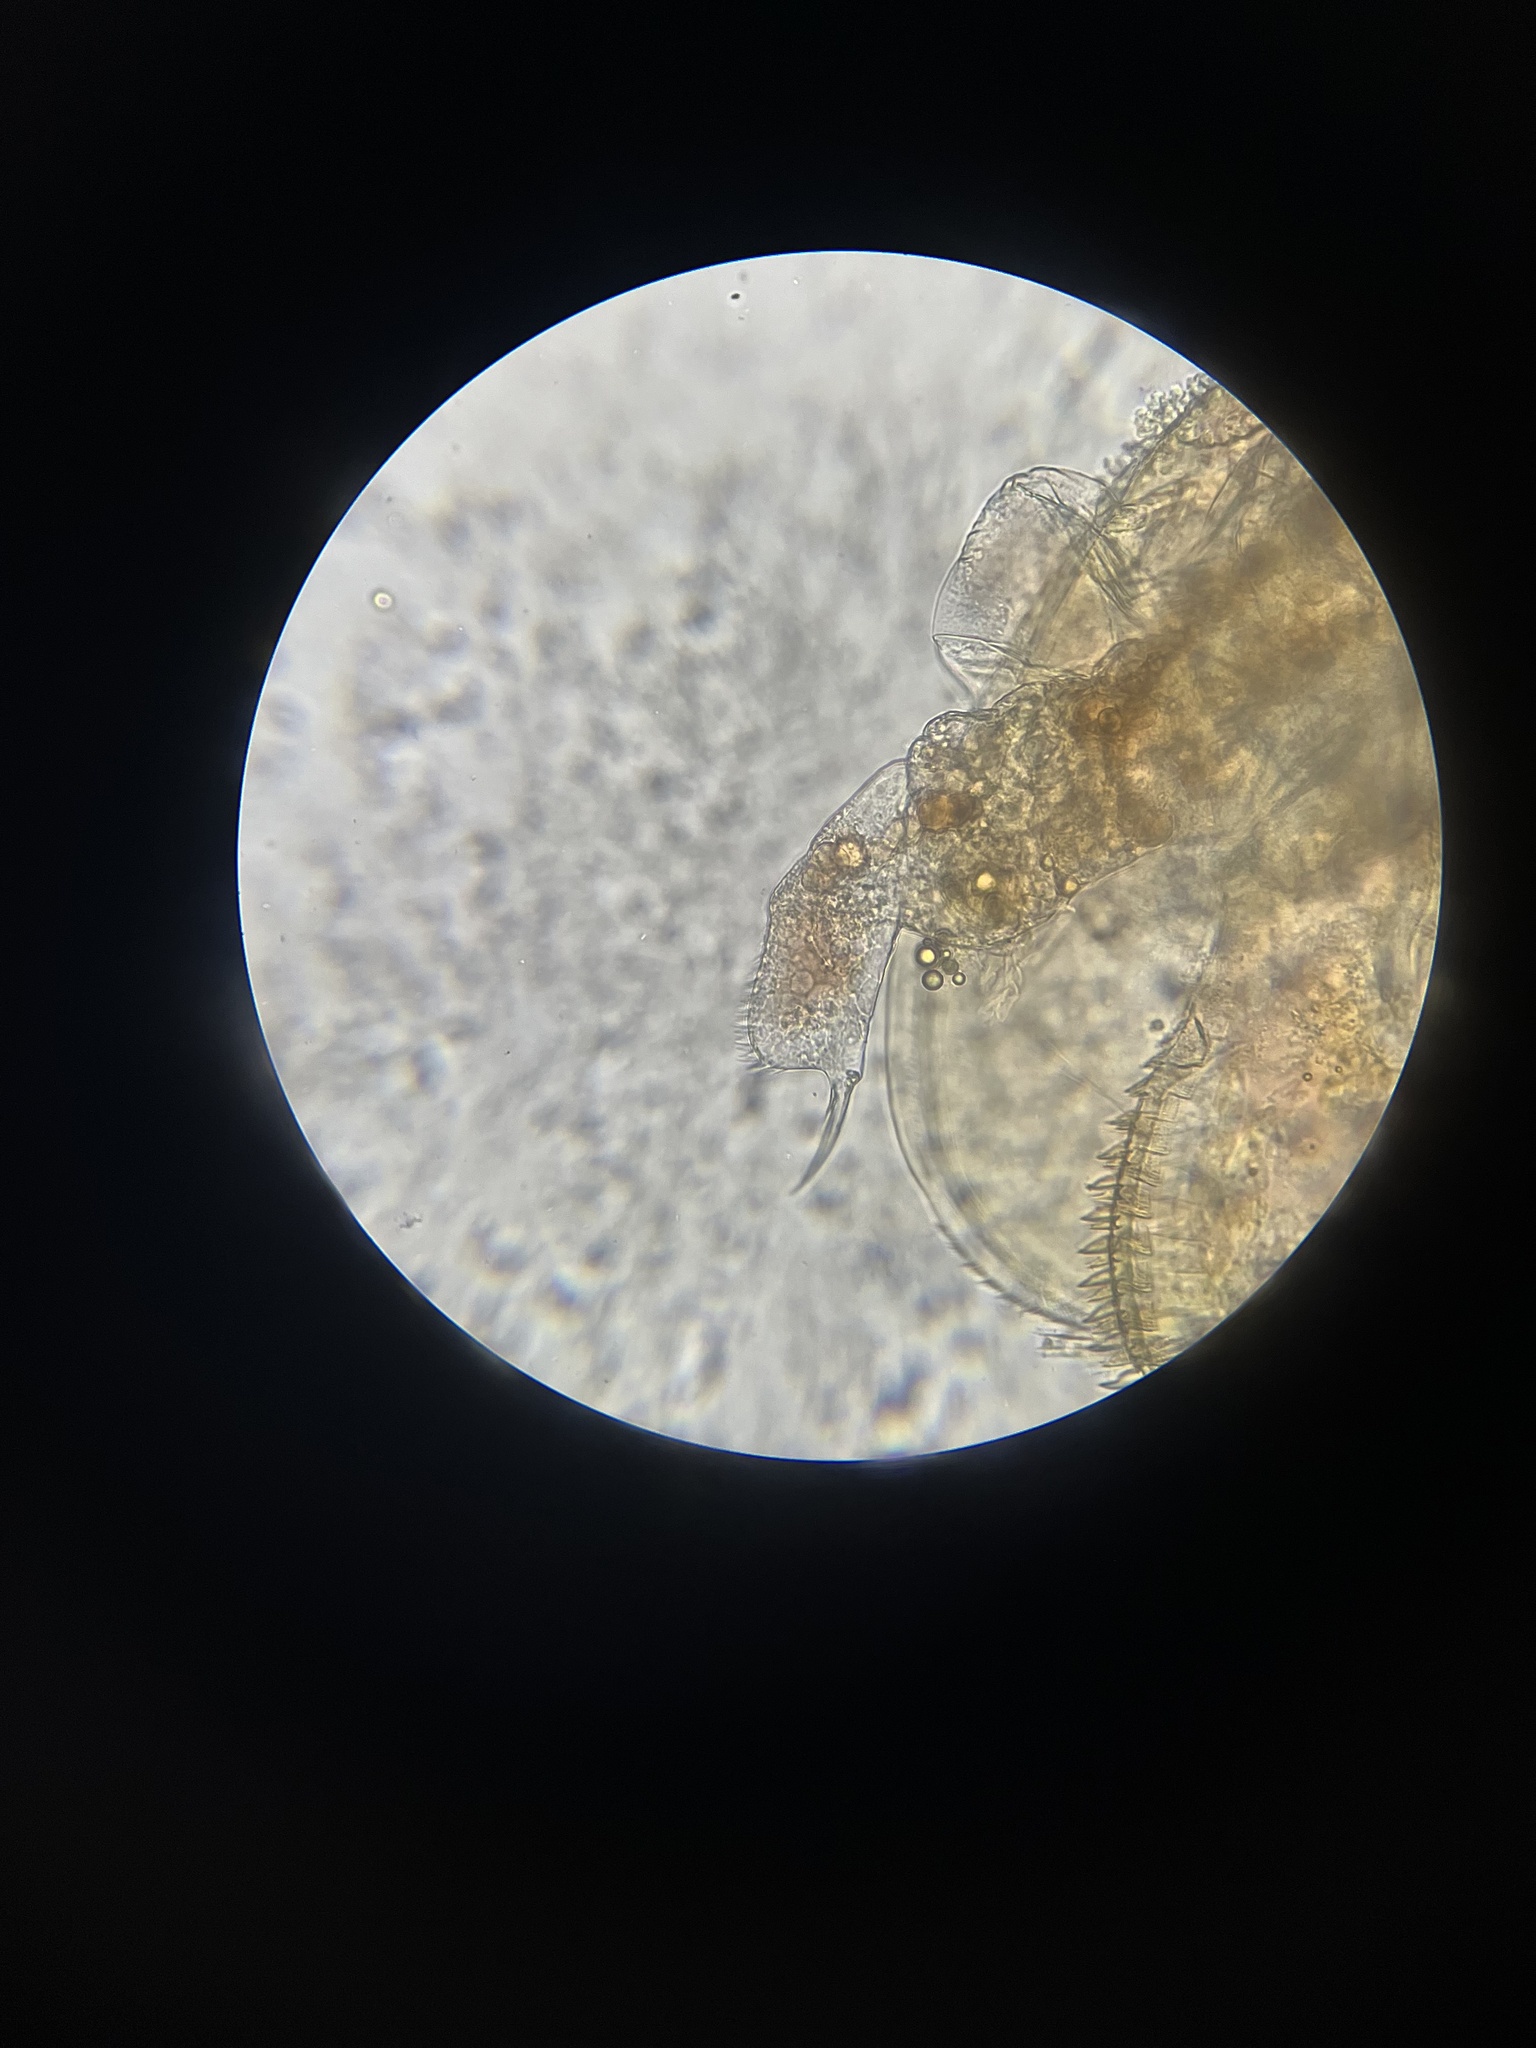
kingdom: Animalia
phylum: Arthropoda
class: Branchiopoda
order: Diplostraca
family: Chydoridae
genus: Alona
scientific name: Alona quadrangularis
